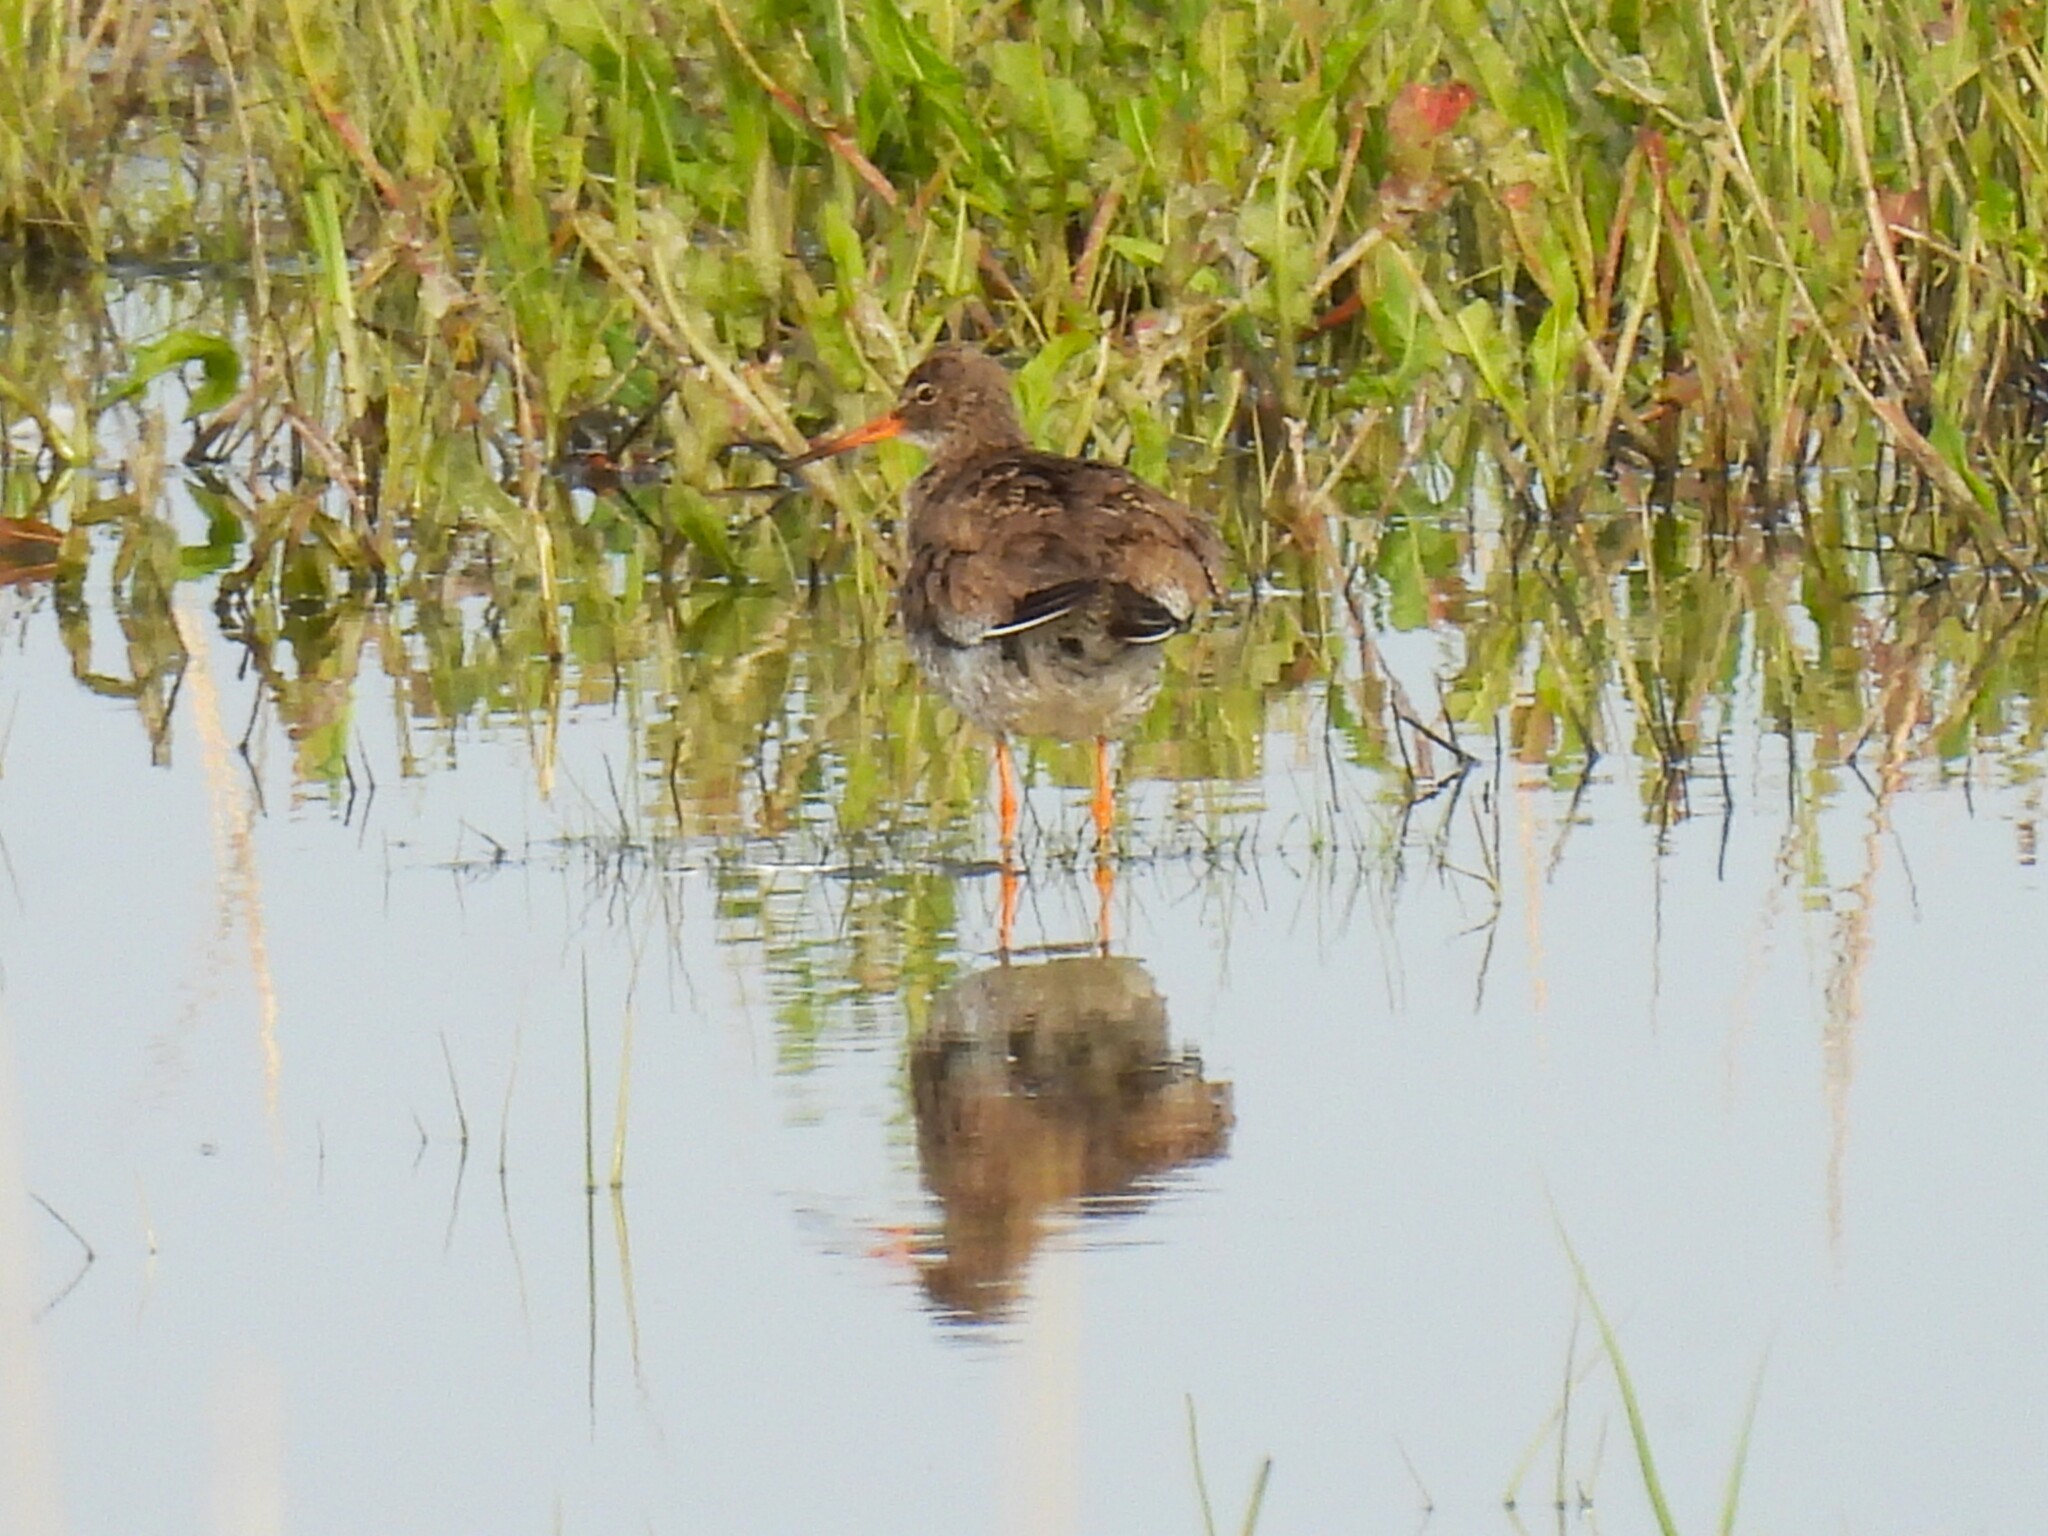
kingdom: Animalia
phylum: Chordata
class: Aves
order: Charadriiformes
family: Scolopacidae
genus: Tringa
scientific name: Tringa totanus
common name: Common redshank
